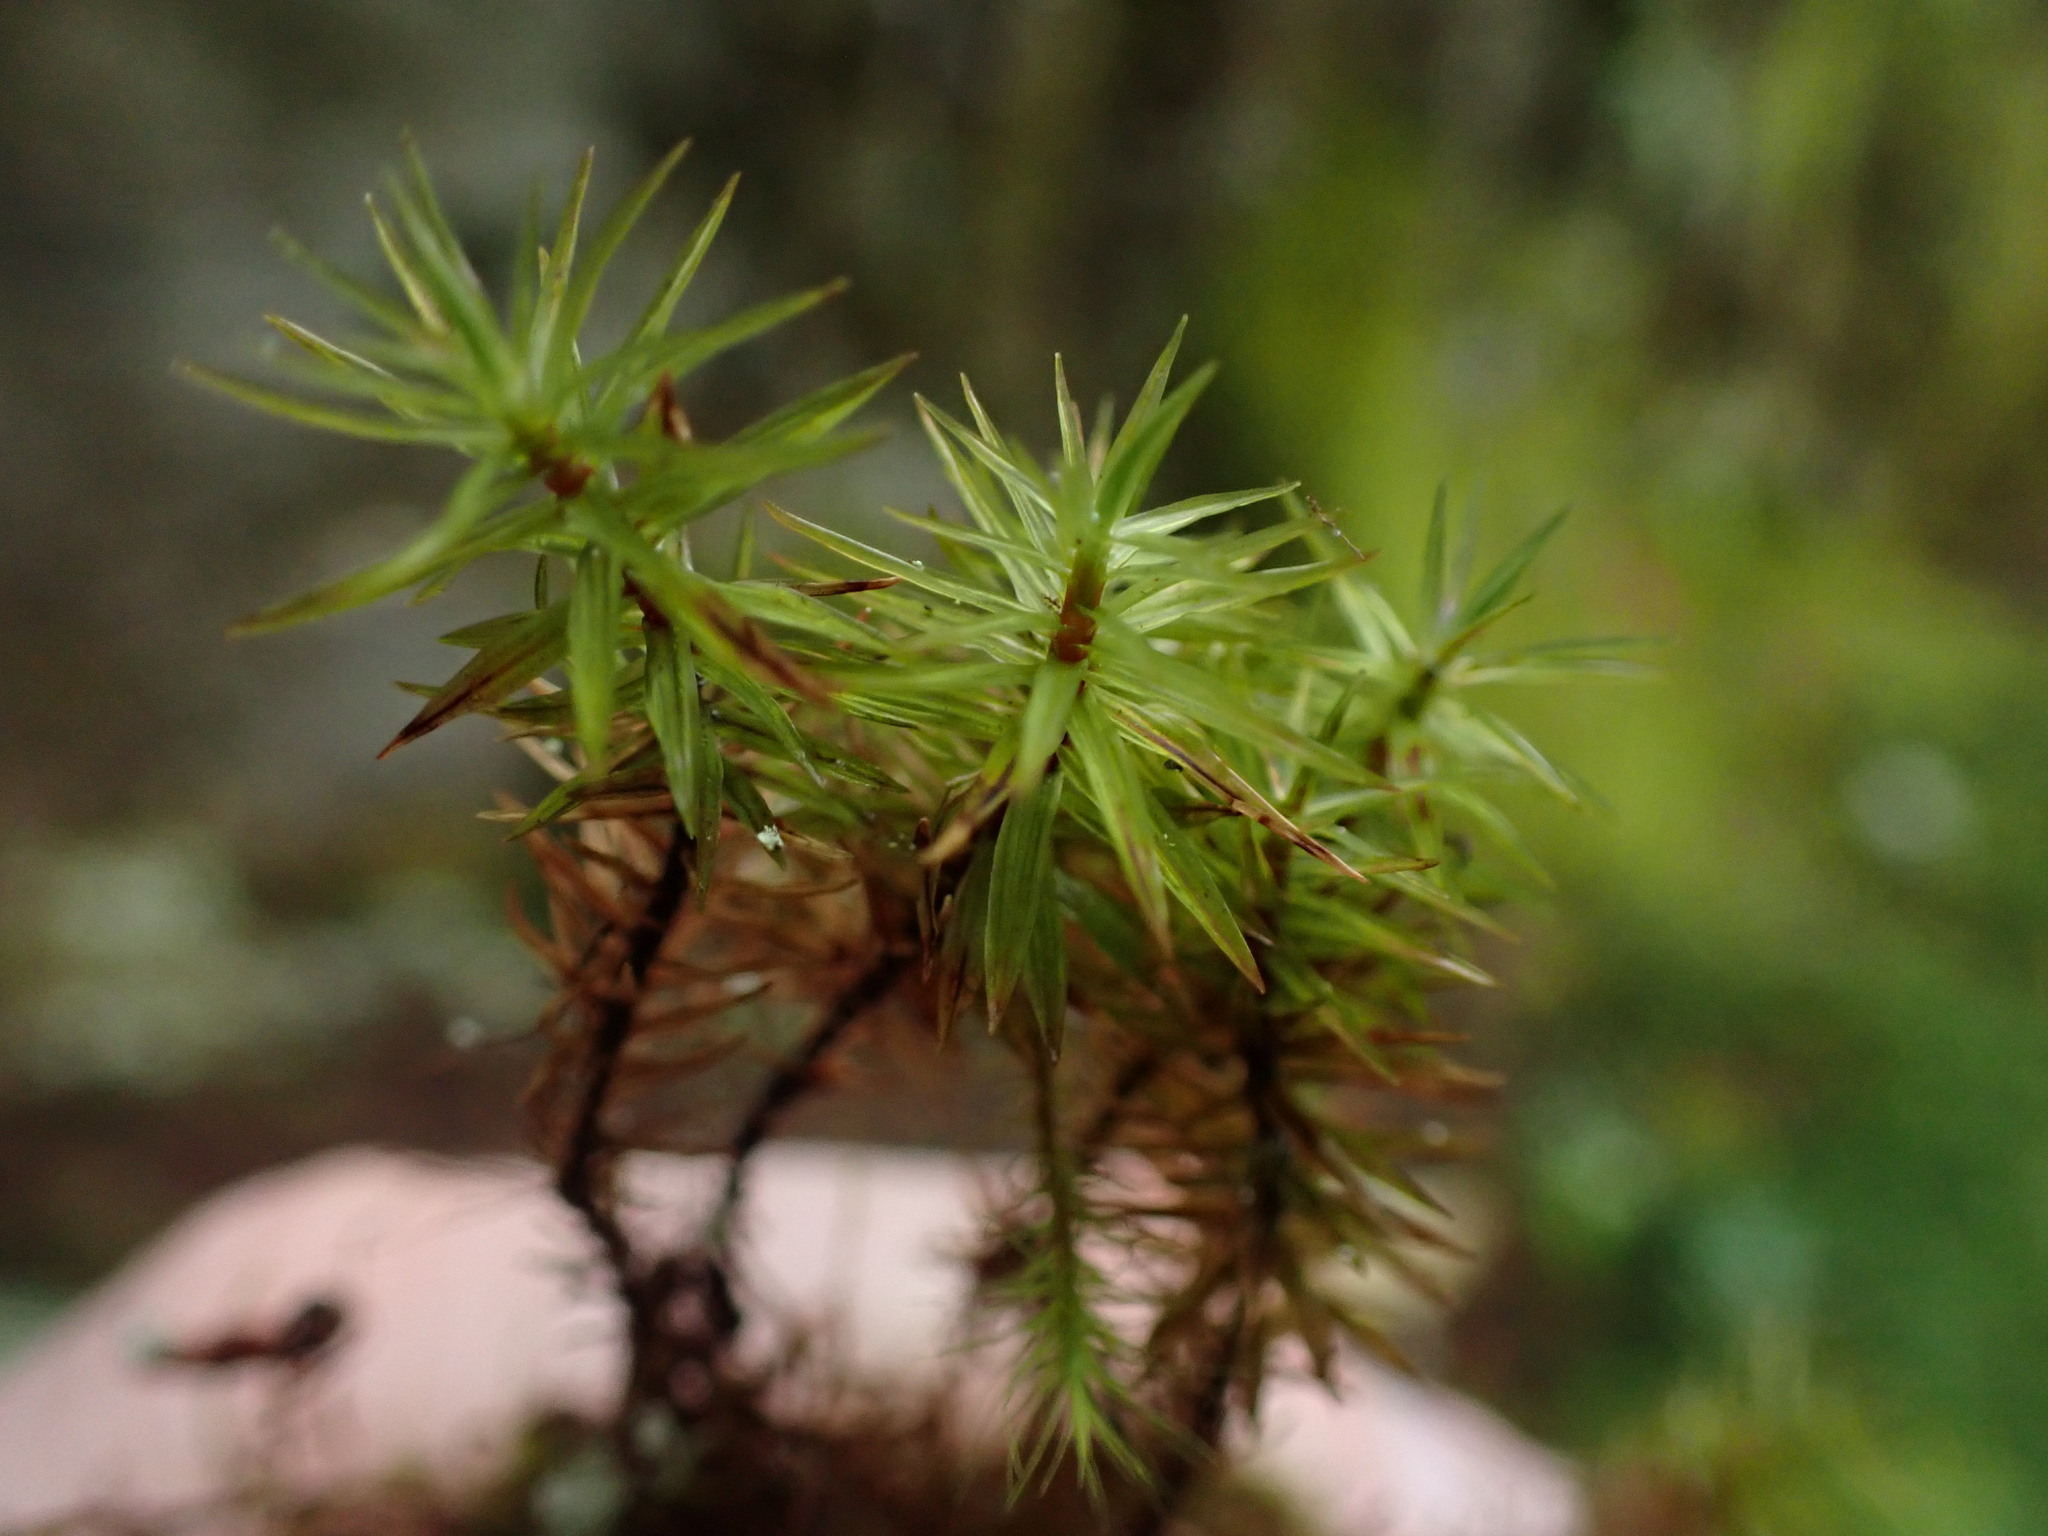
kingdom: Plantae
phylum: Bryophyta
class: Bryopsida
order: Timmiales
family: Timmiaceae
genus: Timmia
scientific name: Timmia austriaca
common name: Austrian timmia
